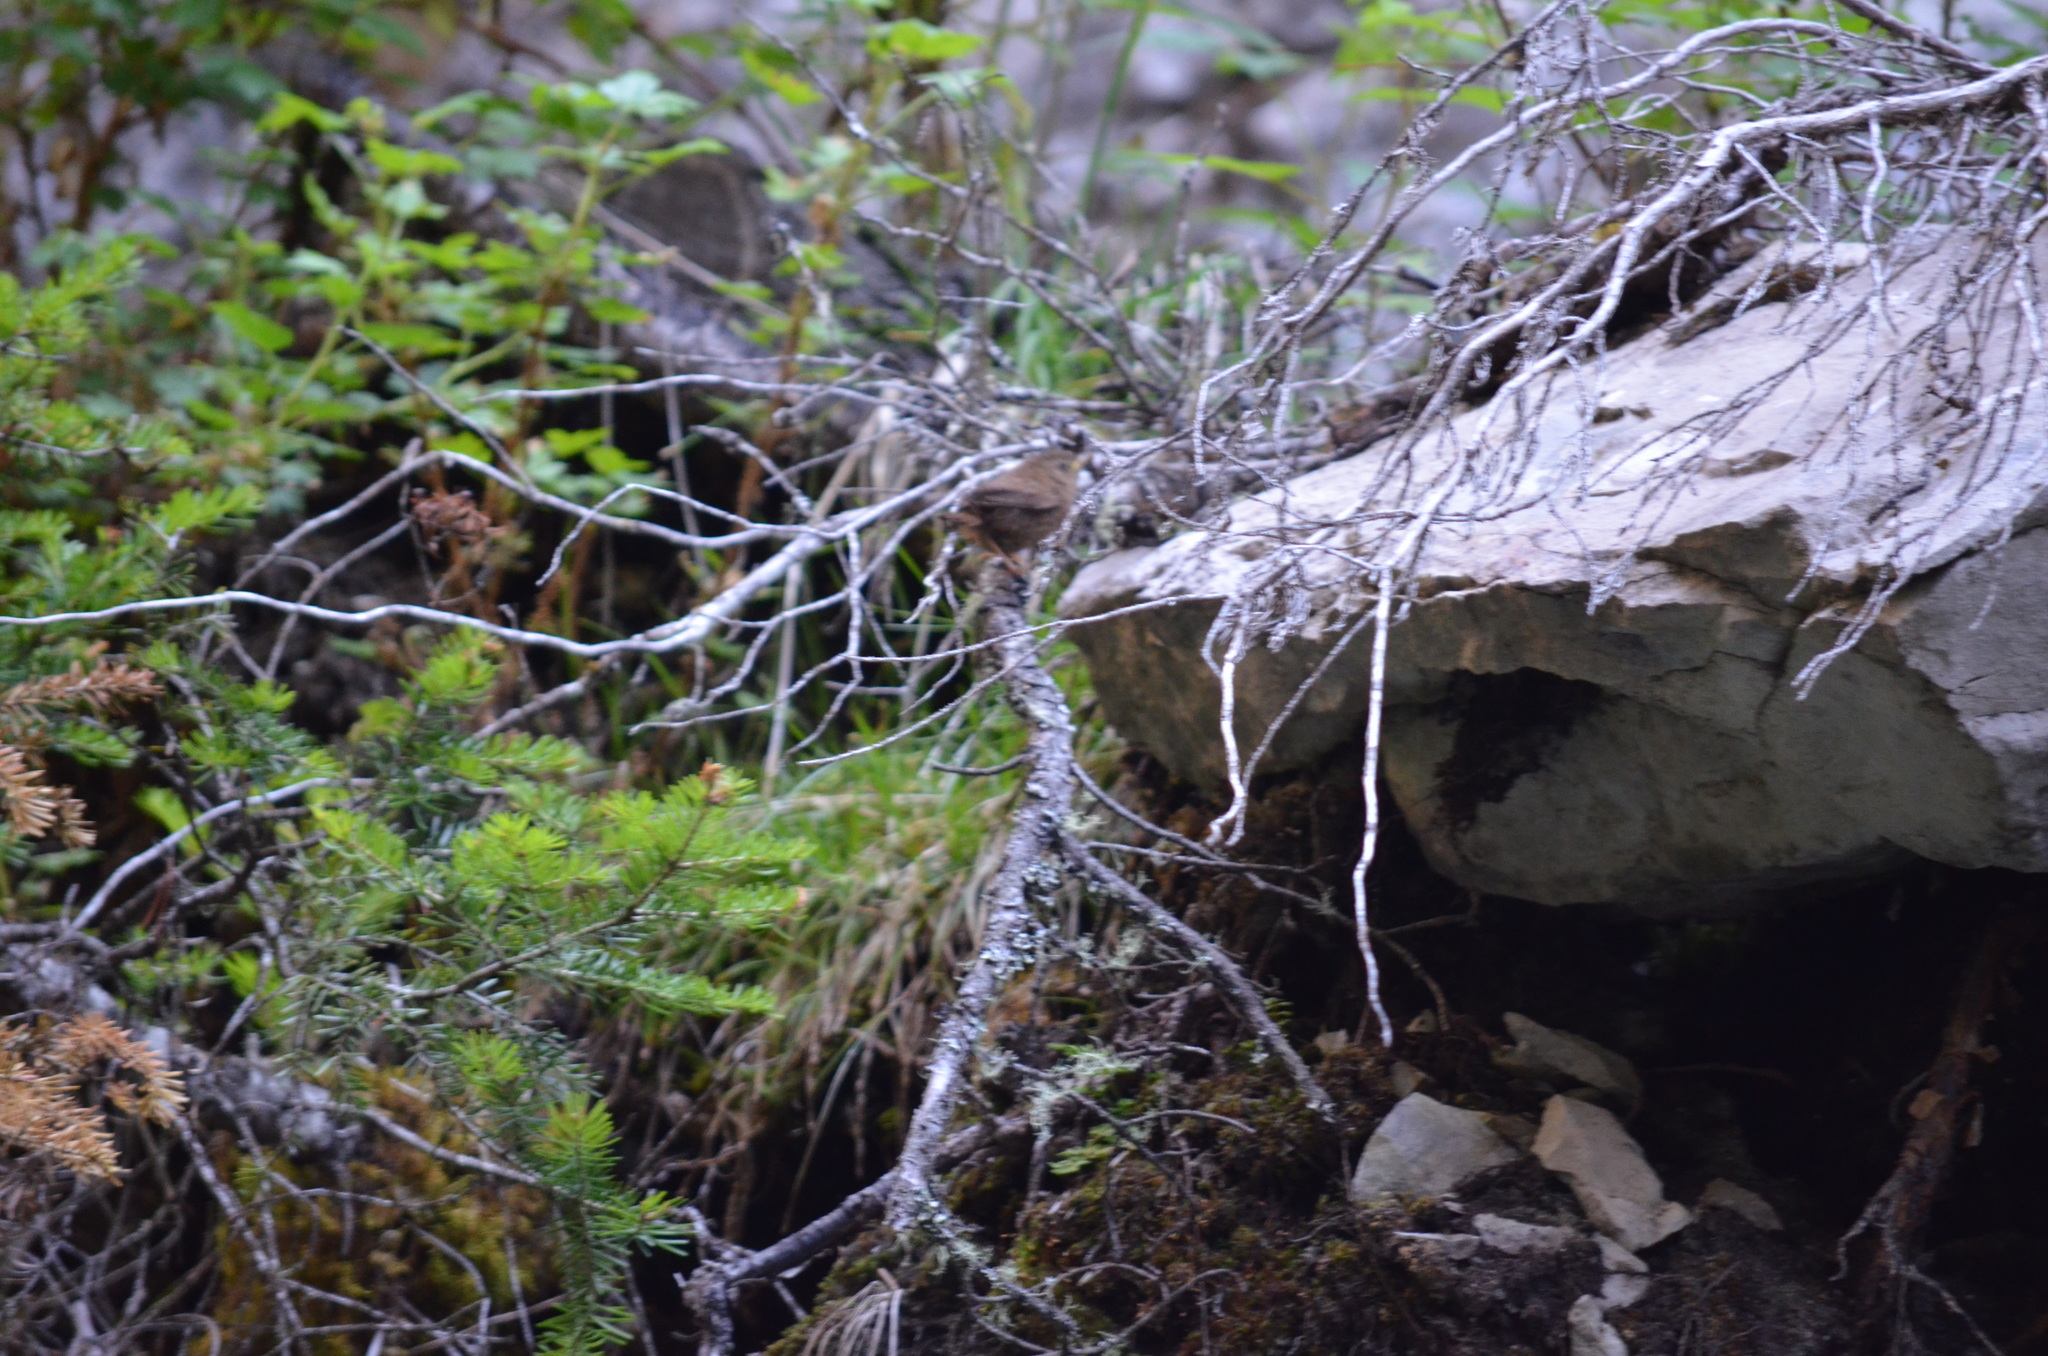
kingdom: Animalia
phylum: Chordata
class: Aves
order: Passeriformes
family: Troglodytidae
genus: Troglodytes
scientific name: Troglodytes pacificus
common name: Pacific wren
